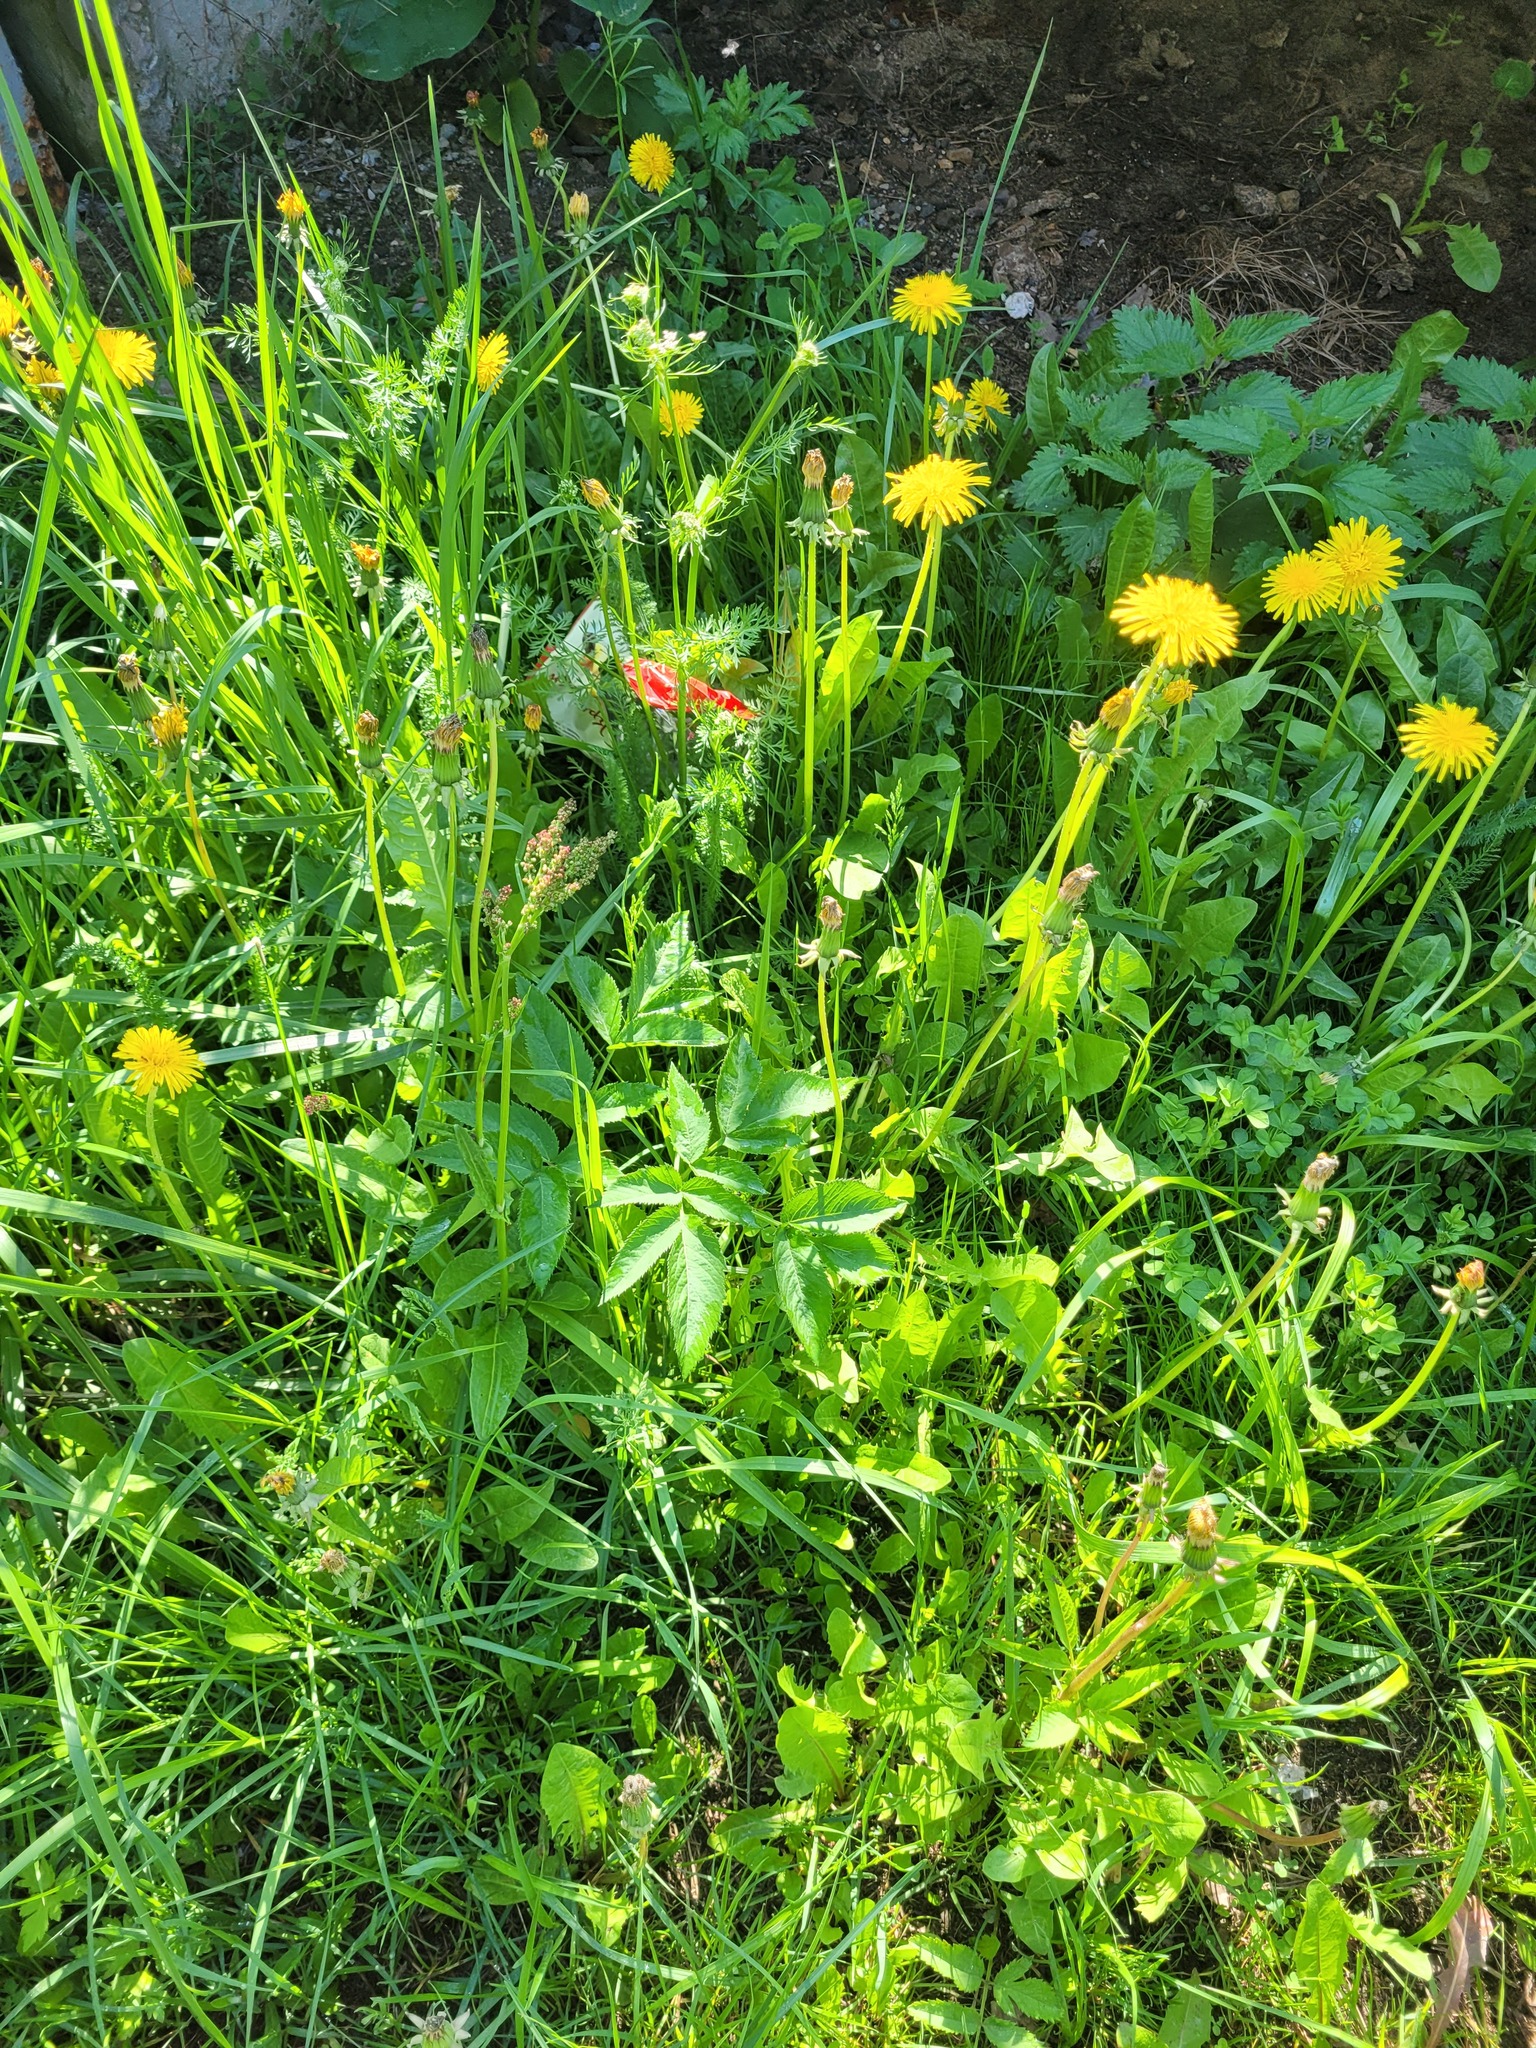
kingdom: Plantae
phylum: Tracheophyta
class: Magnoliopsida
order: Apiales
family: Apiaceae
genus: Angelica
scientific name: Angelica sylvestris
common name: Wild angelica
